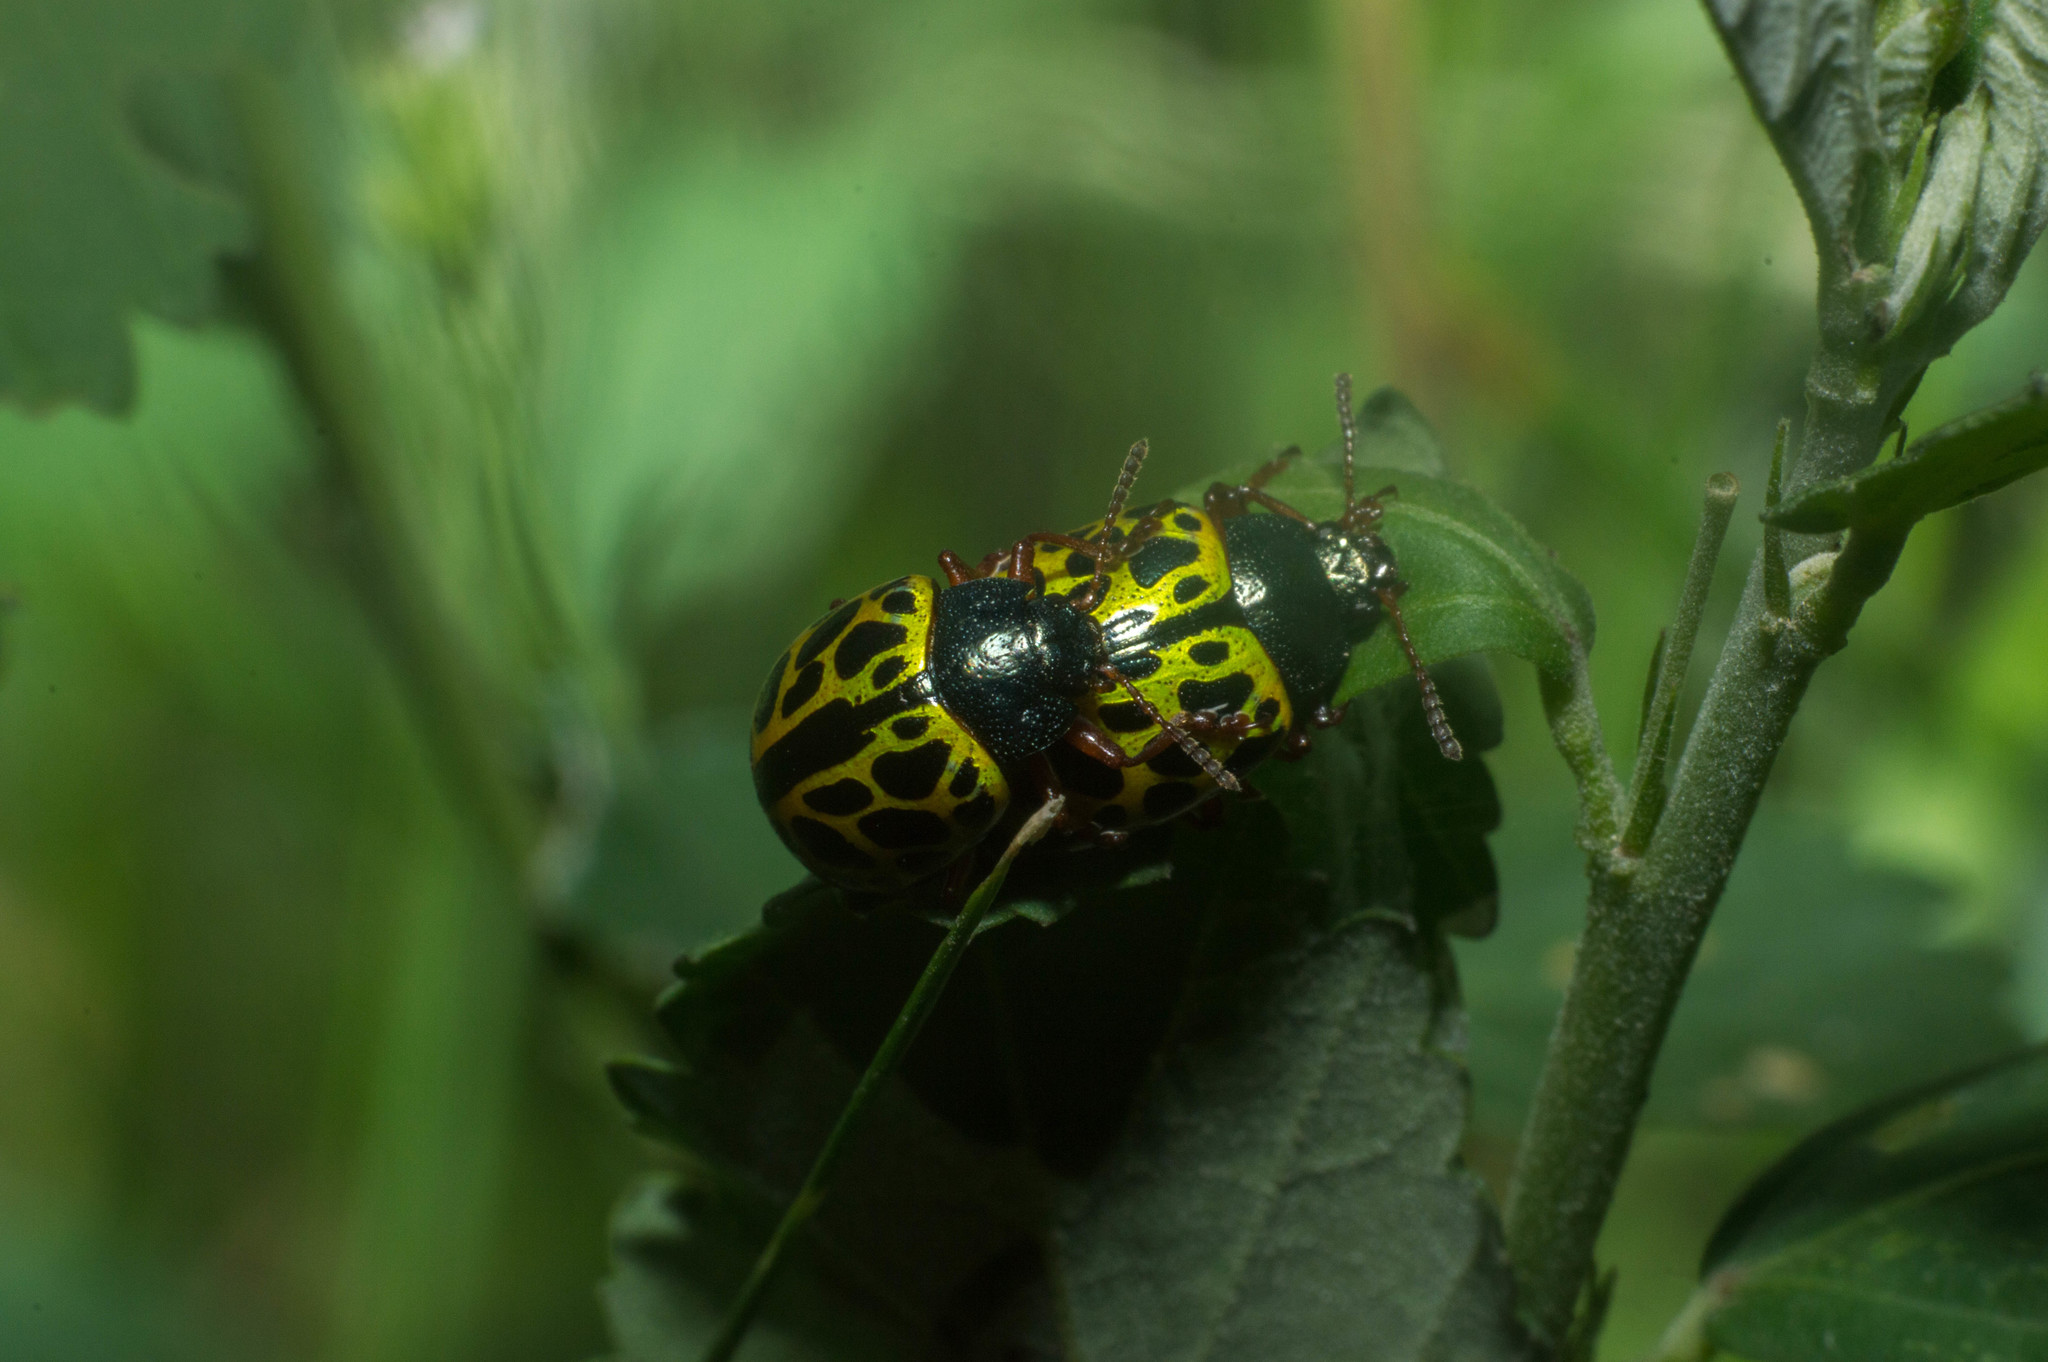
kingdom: Animalia
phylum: Arthropoda
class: Insecta
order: Coleoptera
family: Chrysomelidae
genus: Calligrapha
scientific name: Calligrapha polyspila
